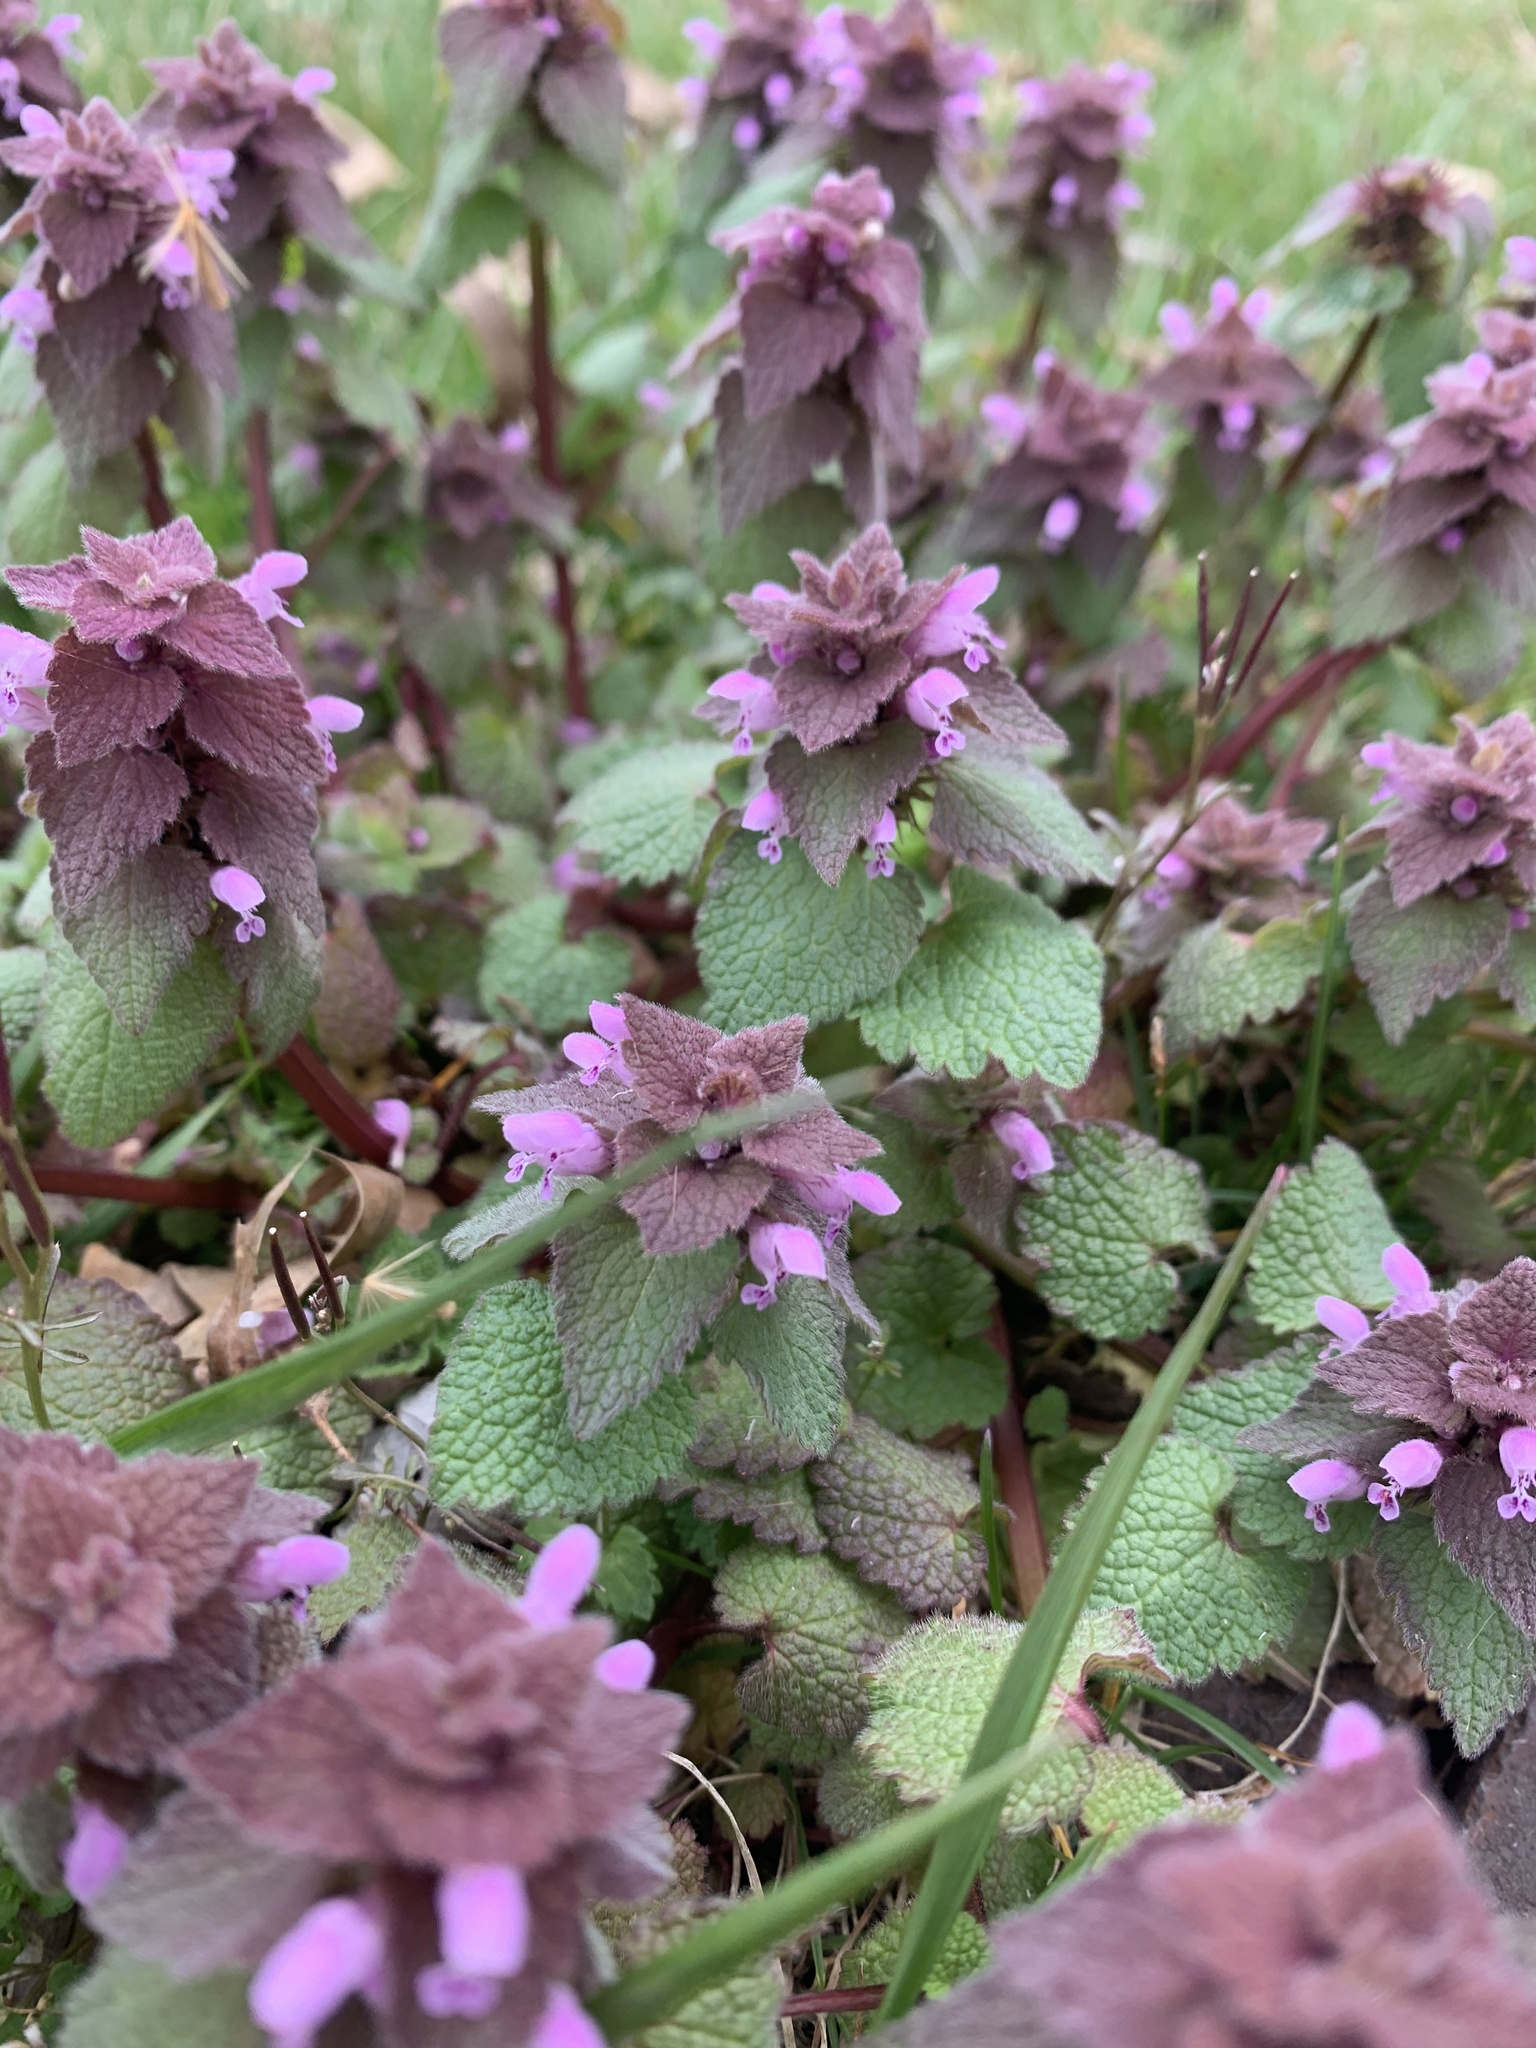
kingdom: Plantae
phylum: Tracheophyta
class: Magnoliopsida
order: Lamiales
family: Lamiaceae
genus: Lamium
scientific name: Lamium purpureum
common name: Red dead-nettle
